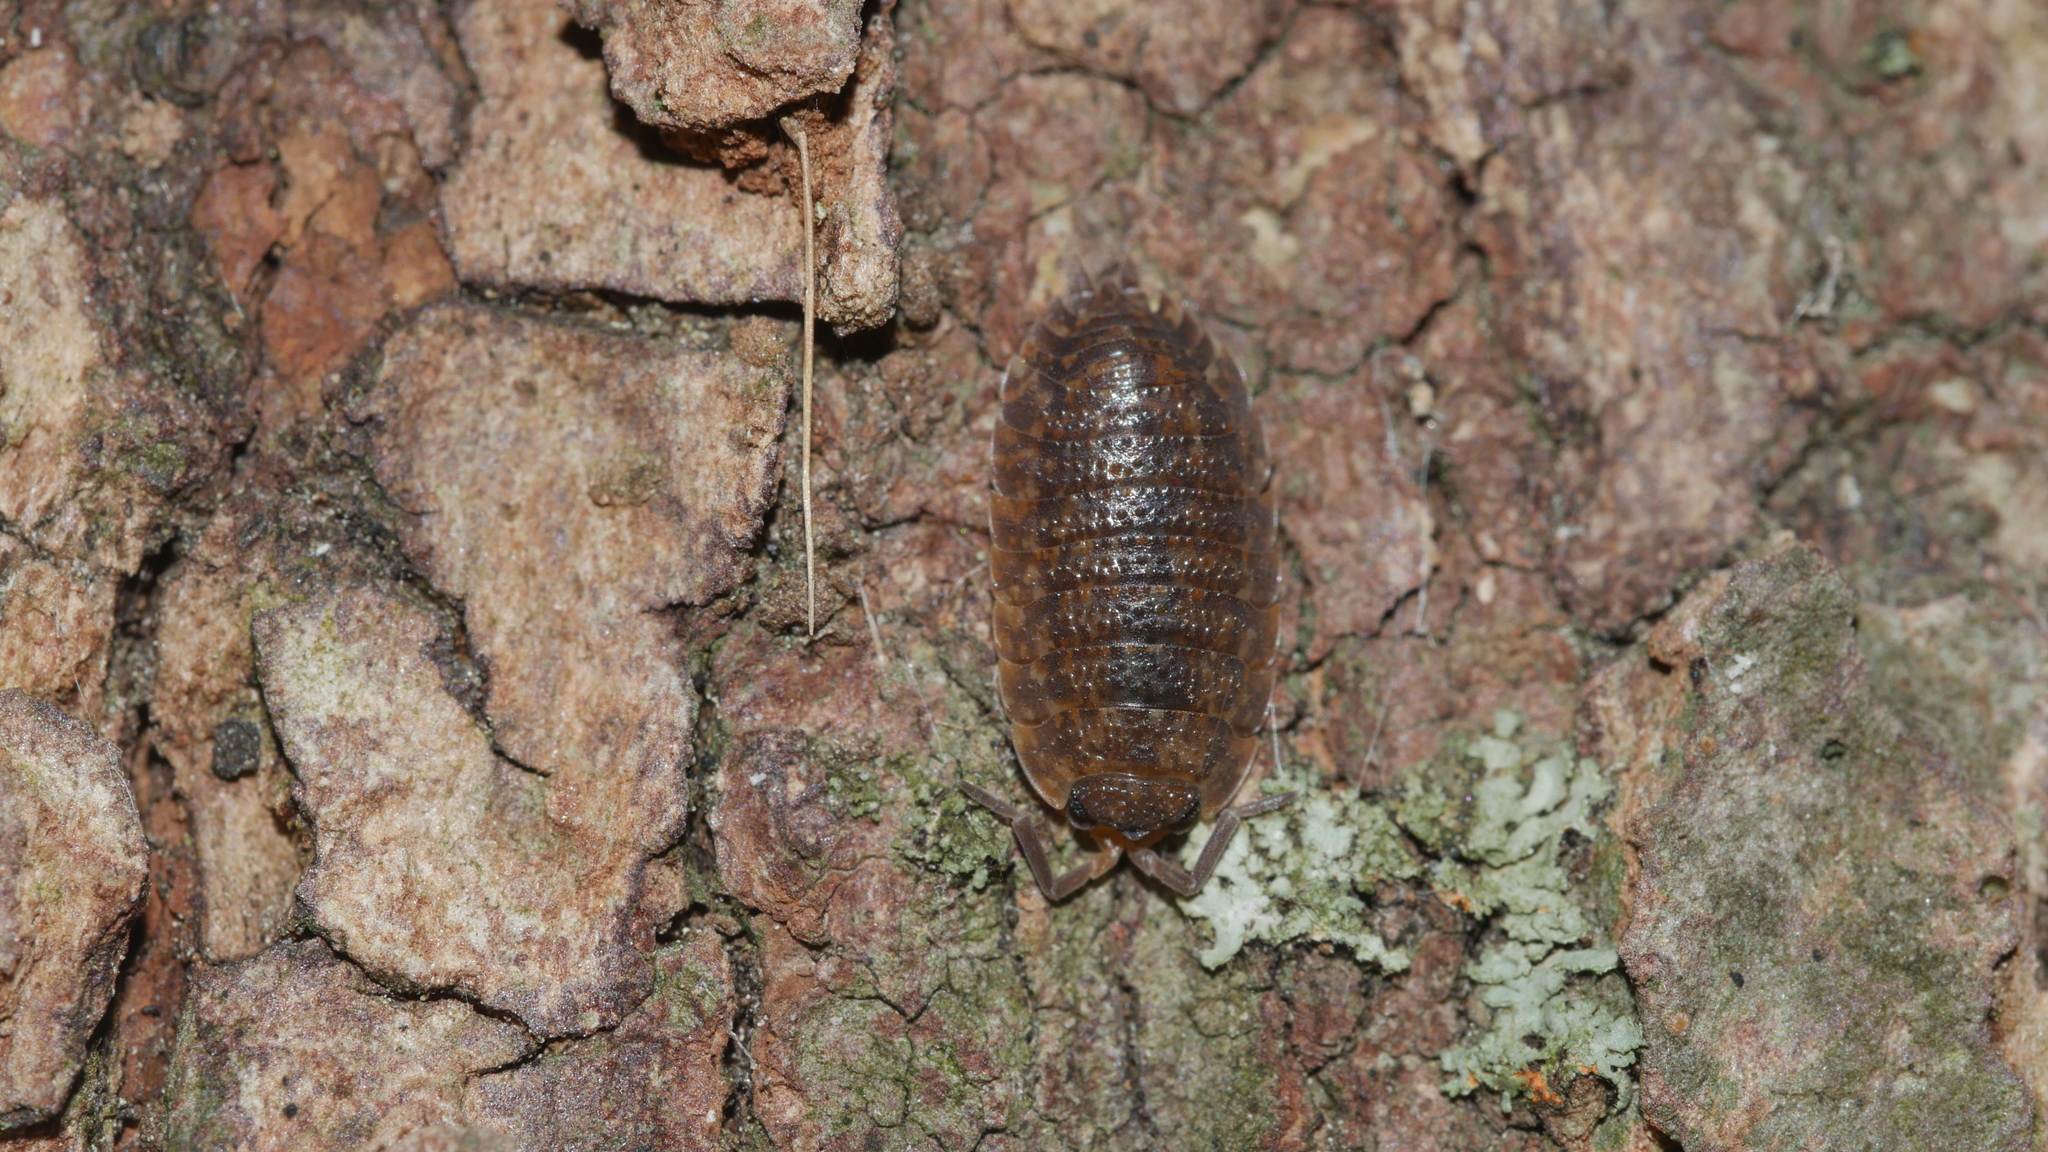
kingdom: Animalia
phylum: Arthropoda
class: Malacostraca
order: Isopoda
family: Porcellionidae
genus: Porcellio
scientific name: Porcellio scaber
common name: Common rough woodlouse
